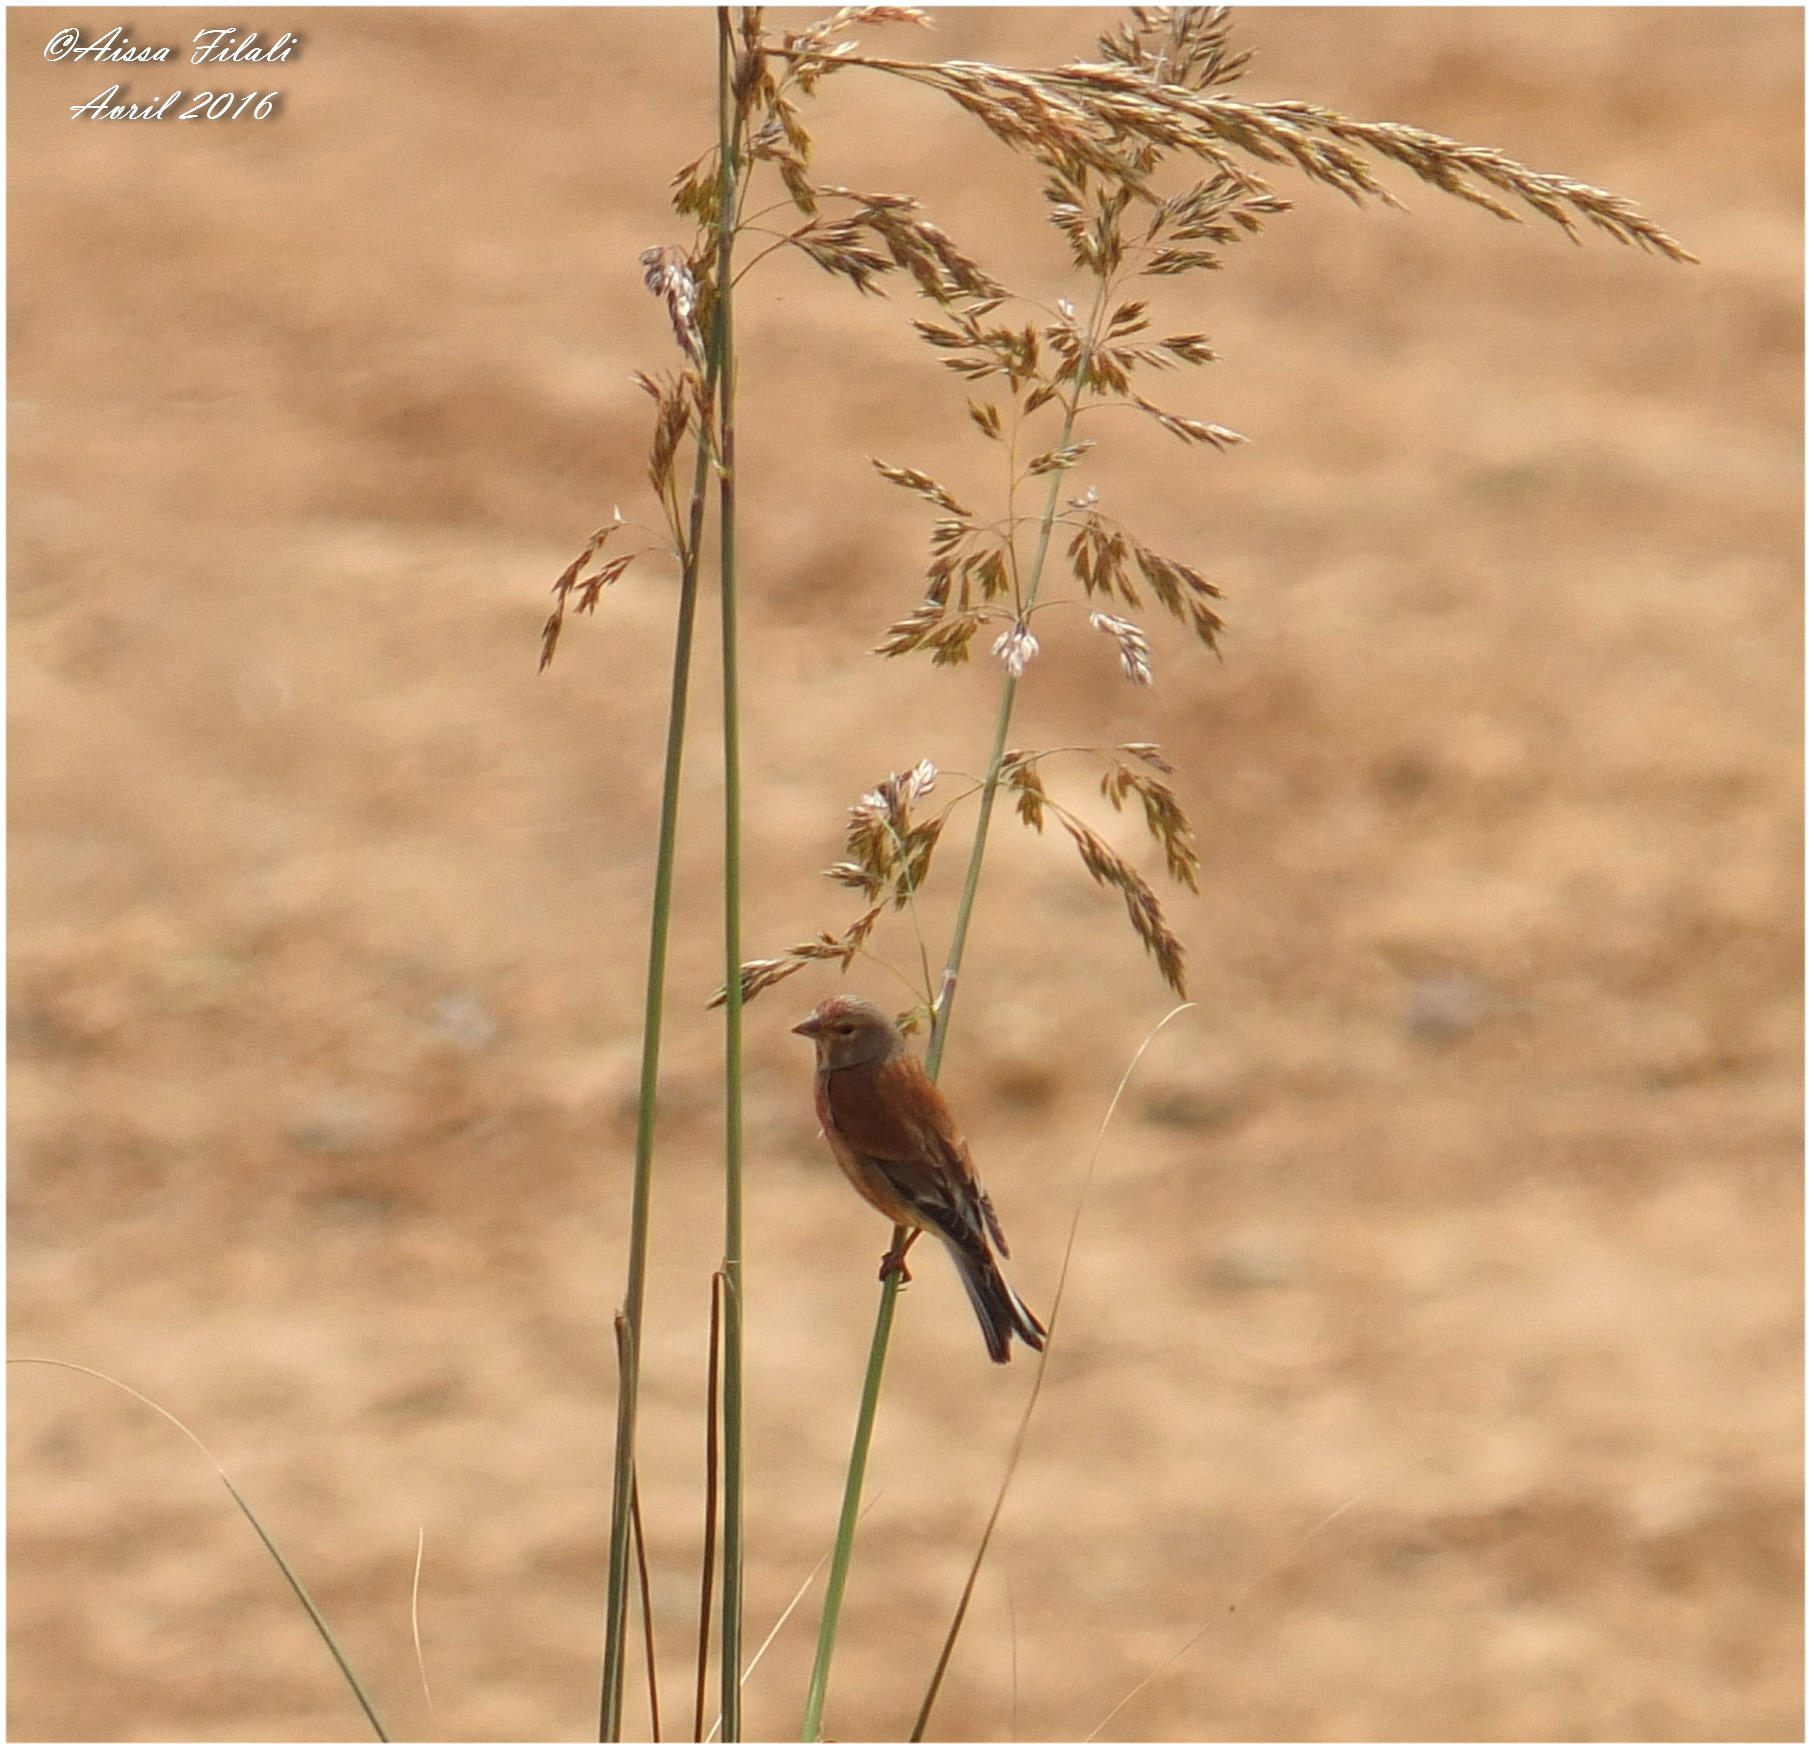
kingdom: Animalia
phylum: Chordata
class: Aves
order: Passeriformes
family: Fringillidae
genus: Linaria
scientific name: Linaria cannabina
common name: Common linnet
